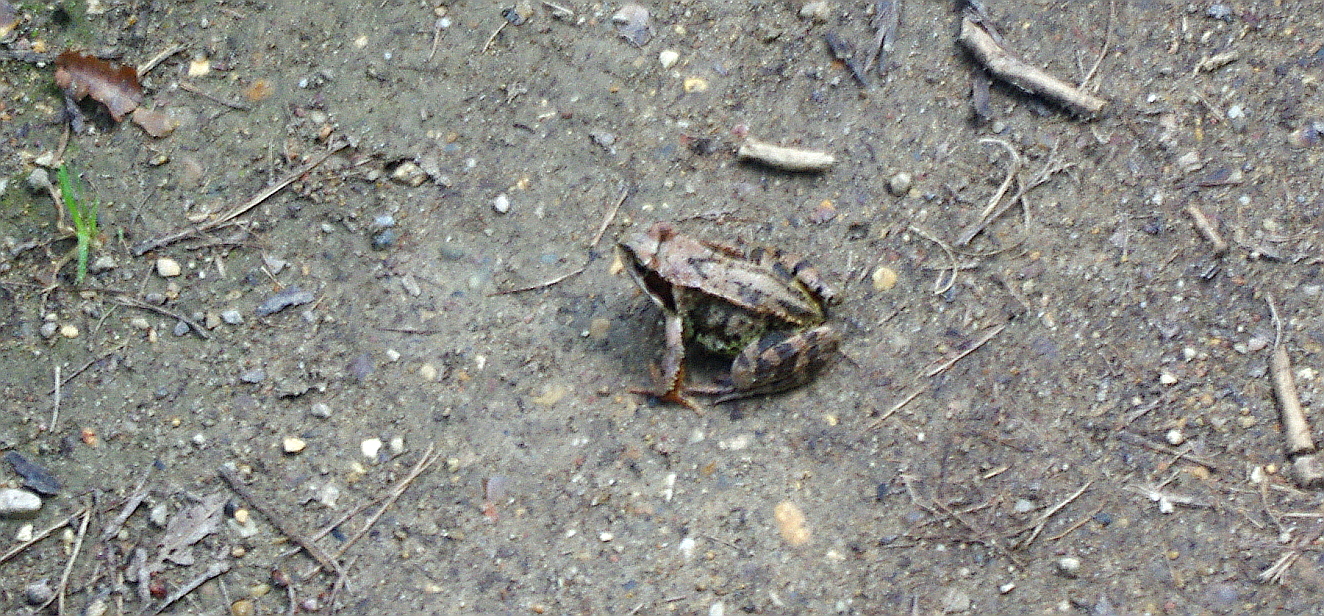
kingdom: Animalia
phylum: Chordata
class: Amphibia
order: Anura
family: Ranidae
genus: Rana
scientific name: Rana temporaria
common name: Common frog
